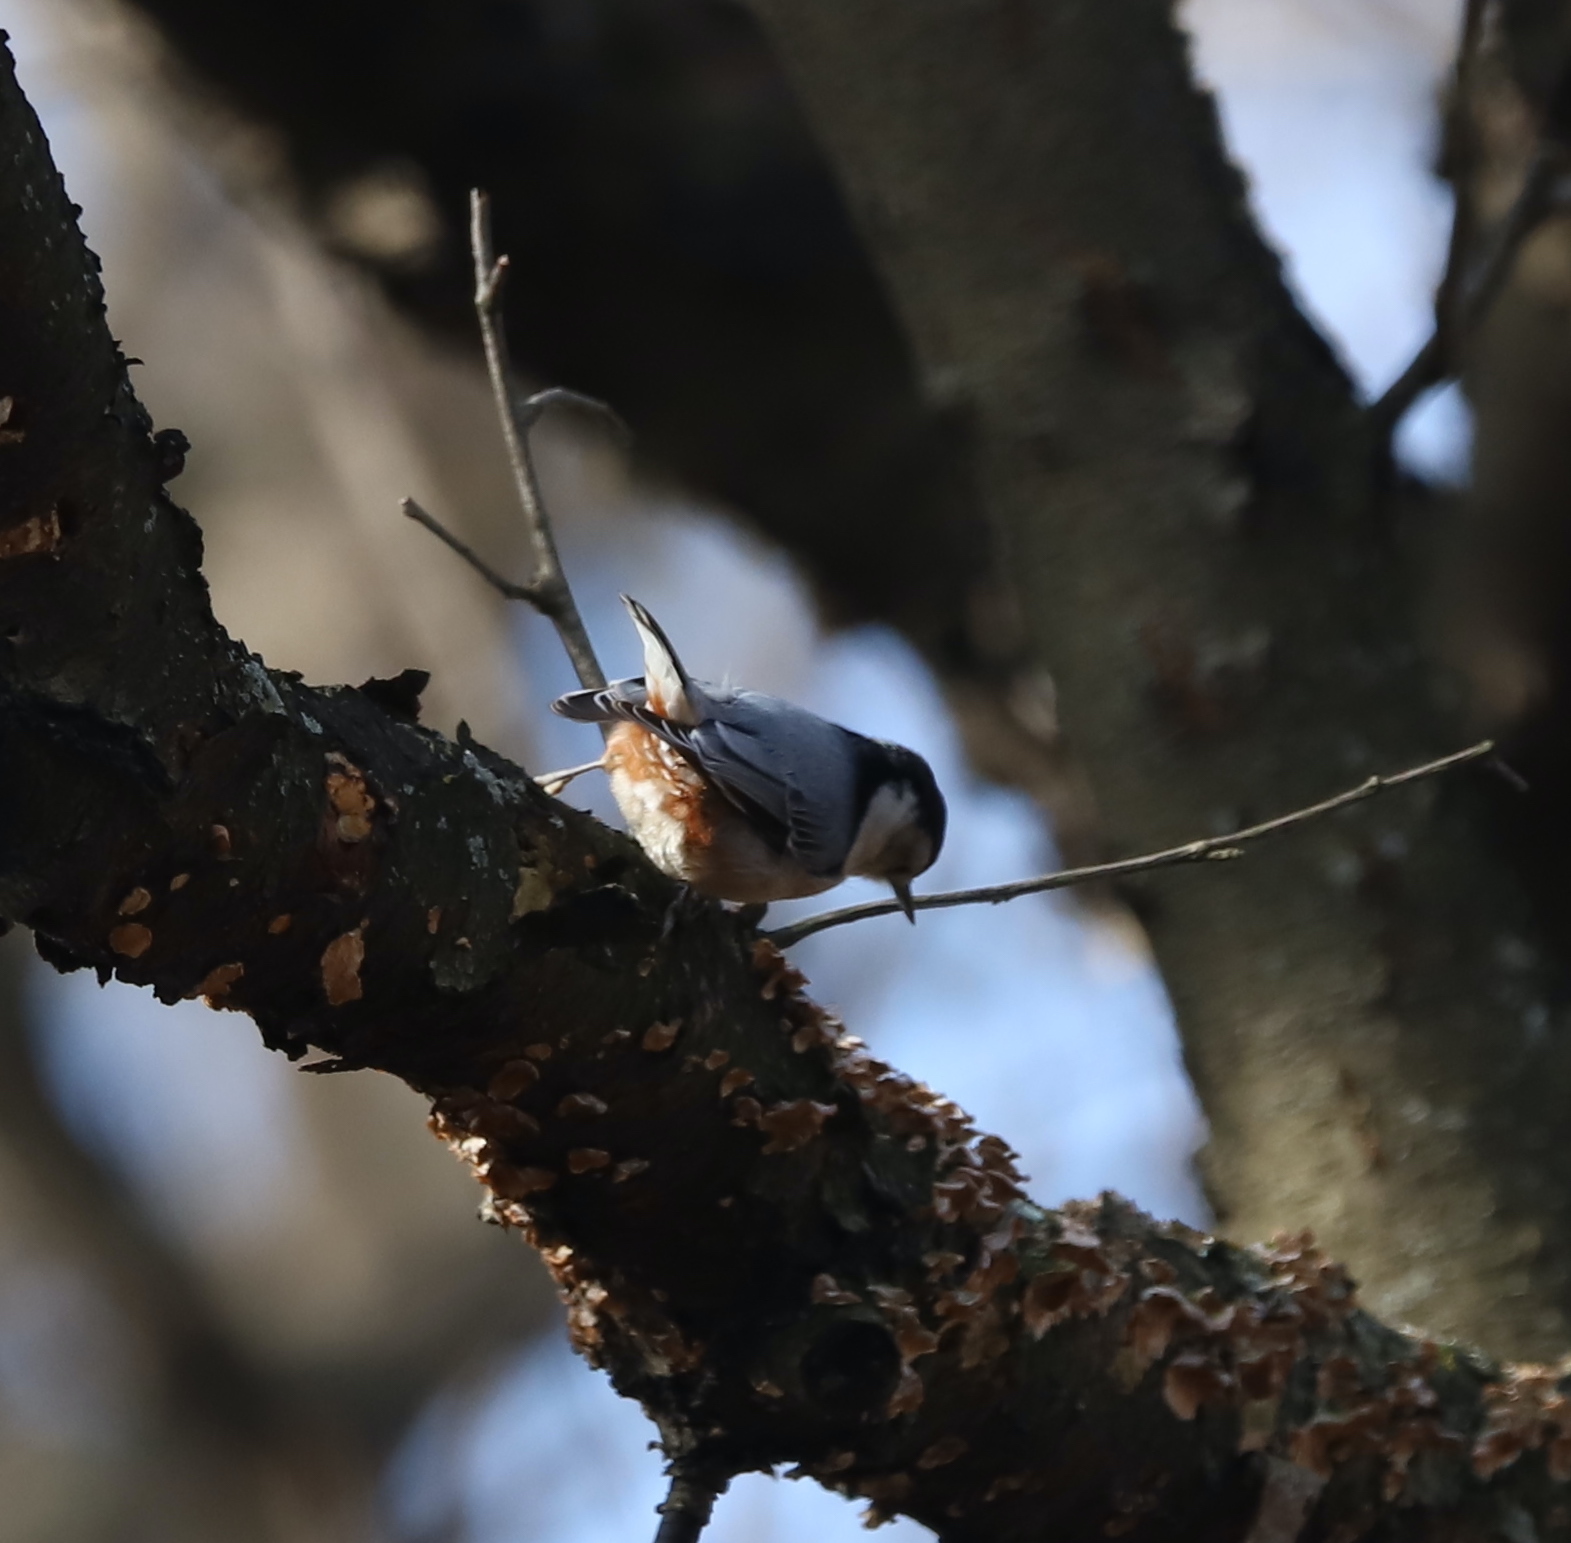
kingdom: Animalia
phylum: Chordata
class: Aves
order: Passeriformes
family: Sittidae
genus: Sitta
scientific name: Sitta carolinensis
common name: White-breasted nuthatch
